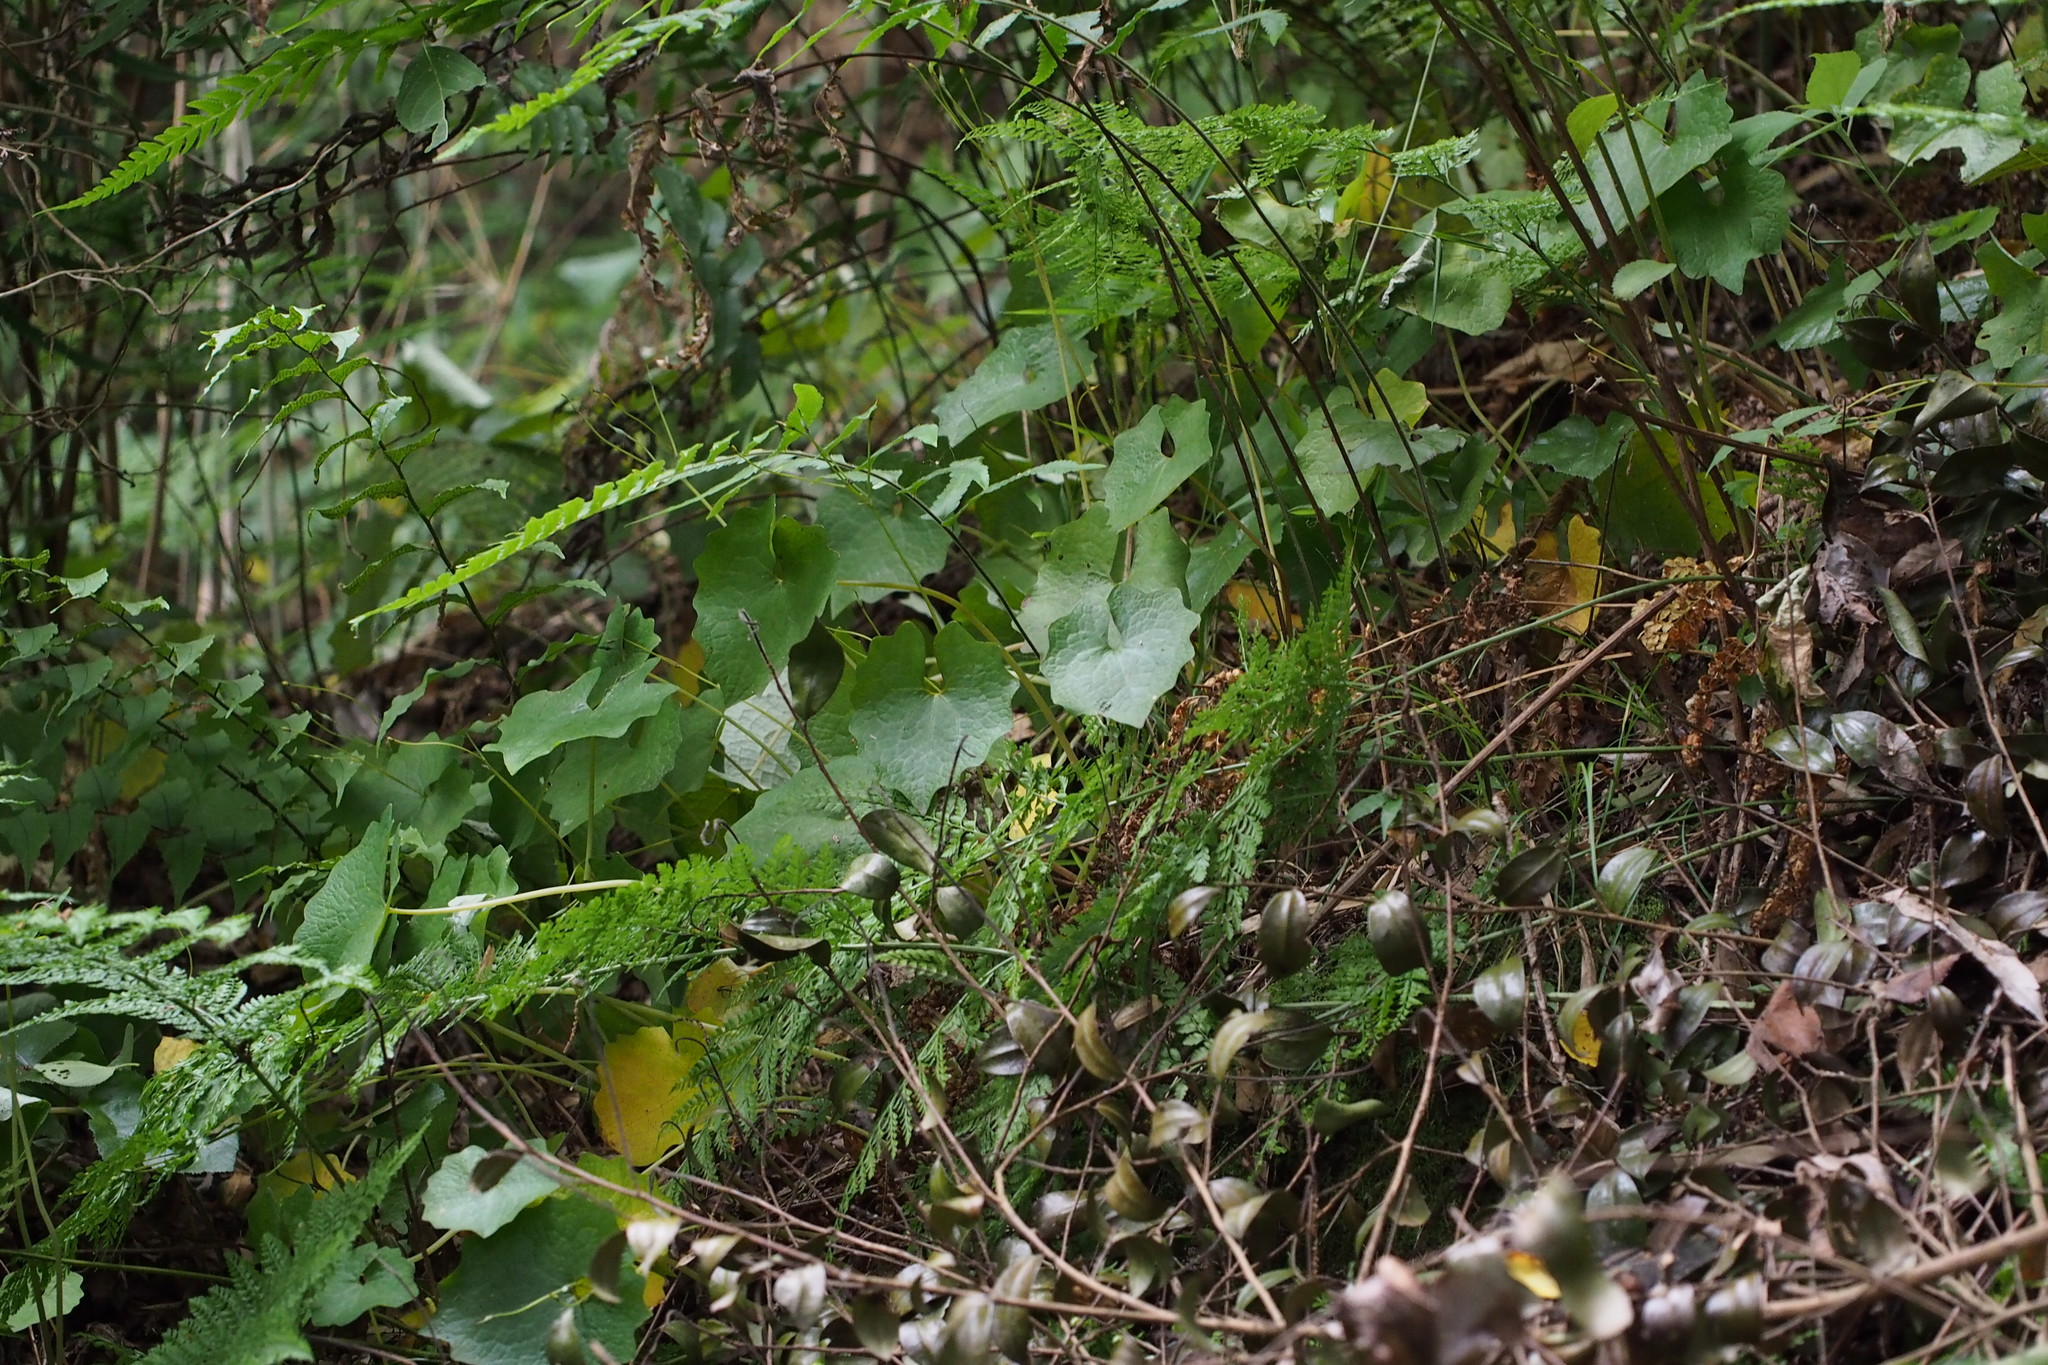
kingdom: Plantae
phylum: Tracheophyta
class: Magnoliopsida
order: Ranunculales
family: Papaveraceae
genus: Eomecon
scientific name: Eomecon chionantha
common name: Dawn-poppy
